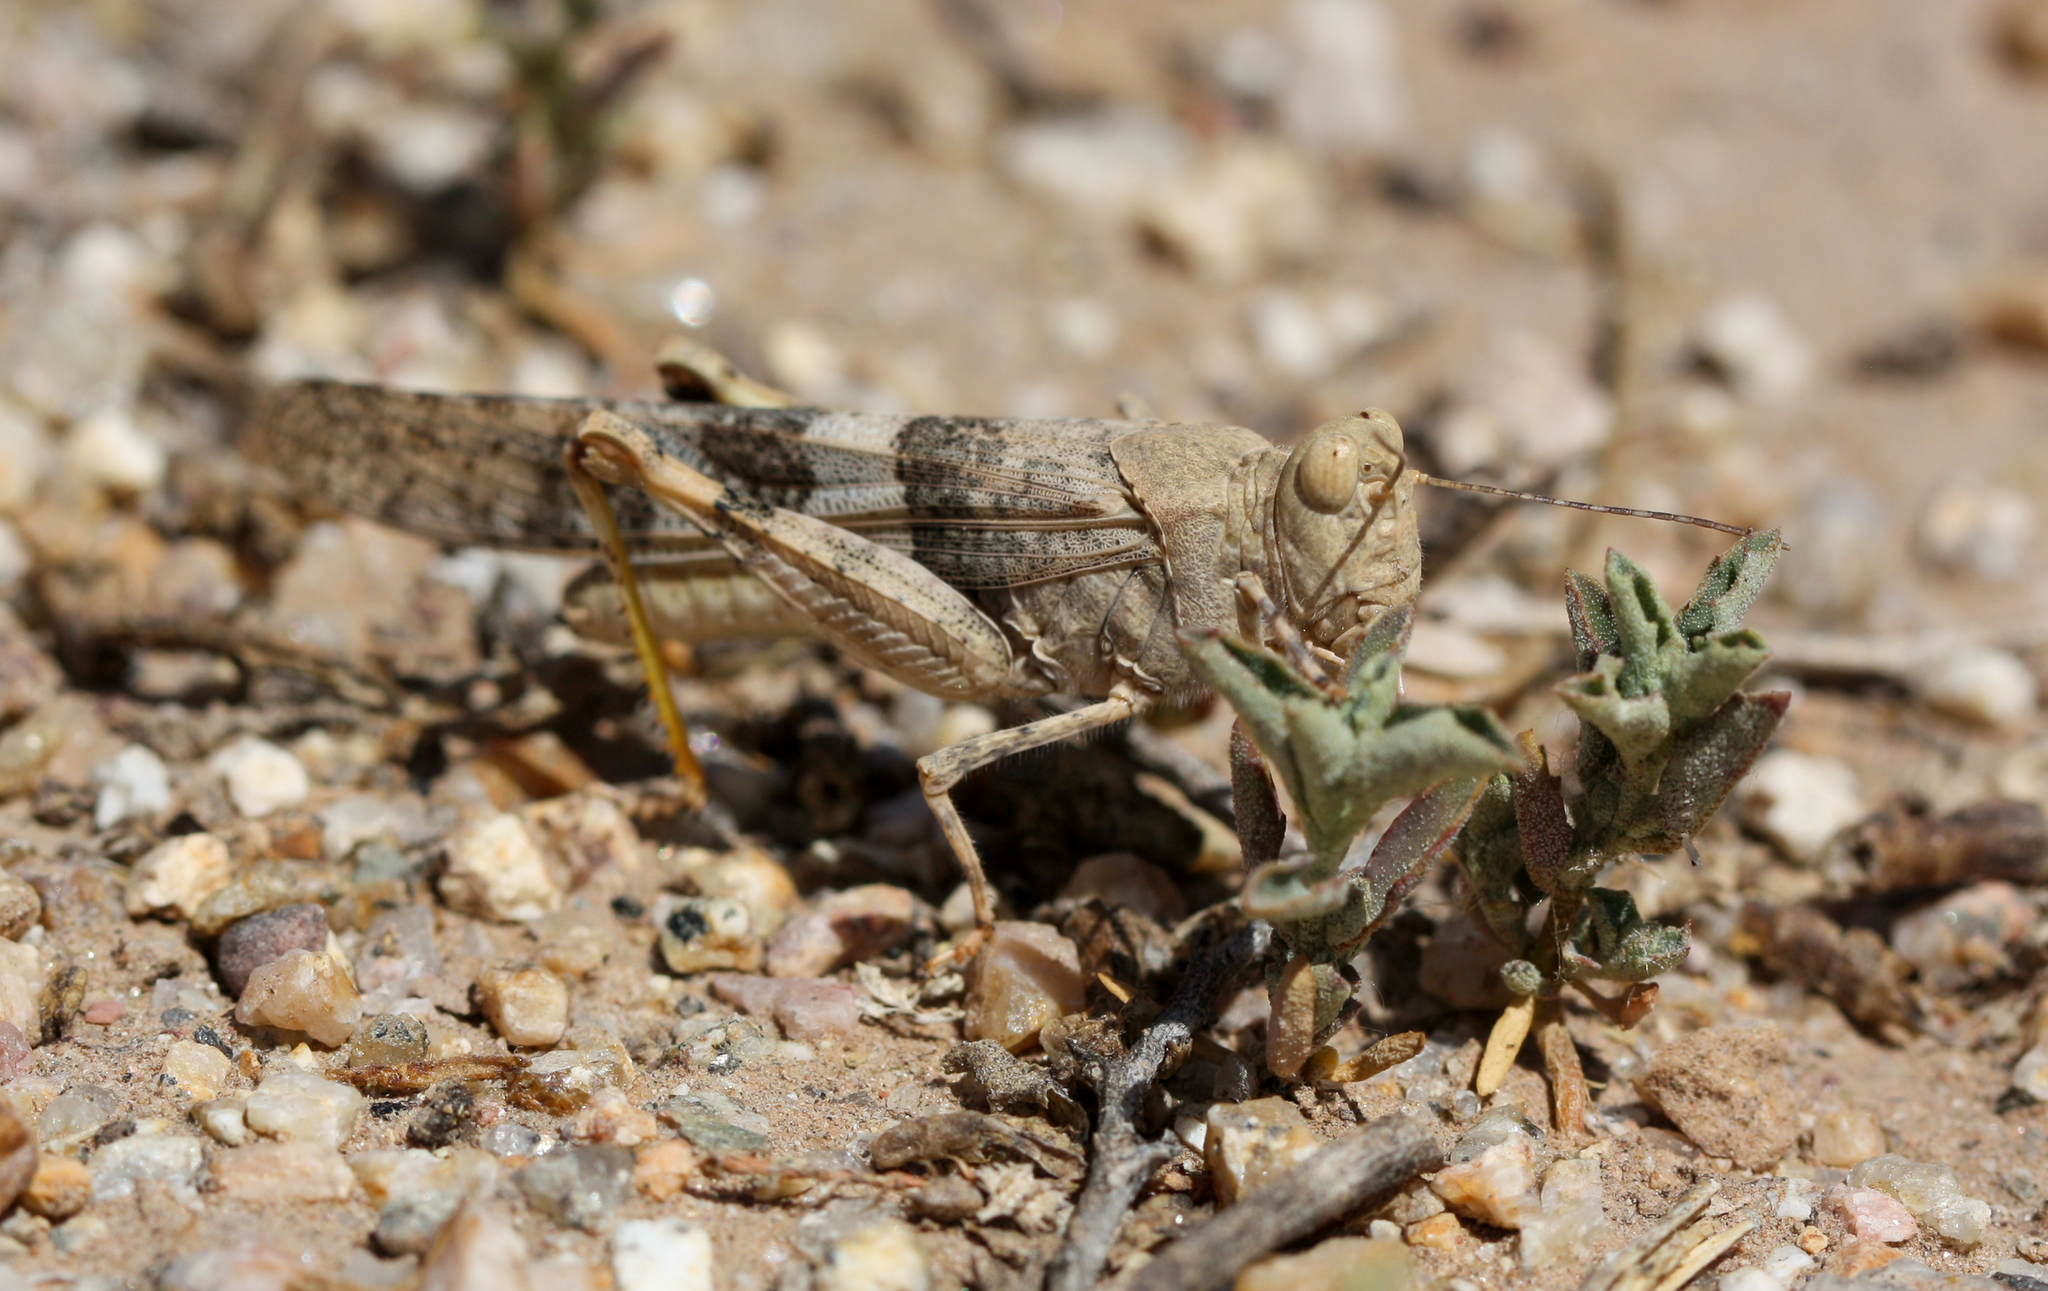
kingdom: Animalia
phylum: Arthropoda
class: Insecta
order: Orthoptera
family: Acrididae
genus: Trimerotropis
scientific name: Trimerotropis pallidipennis
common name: Pallid-winged grasshopper
